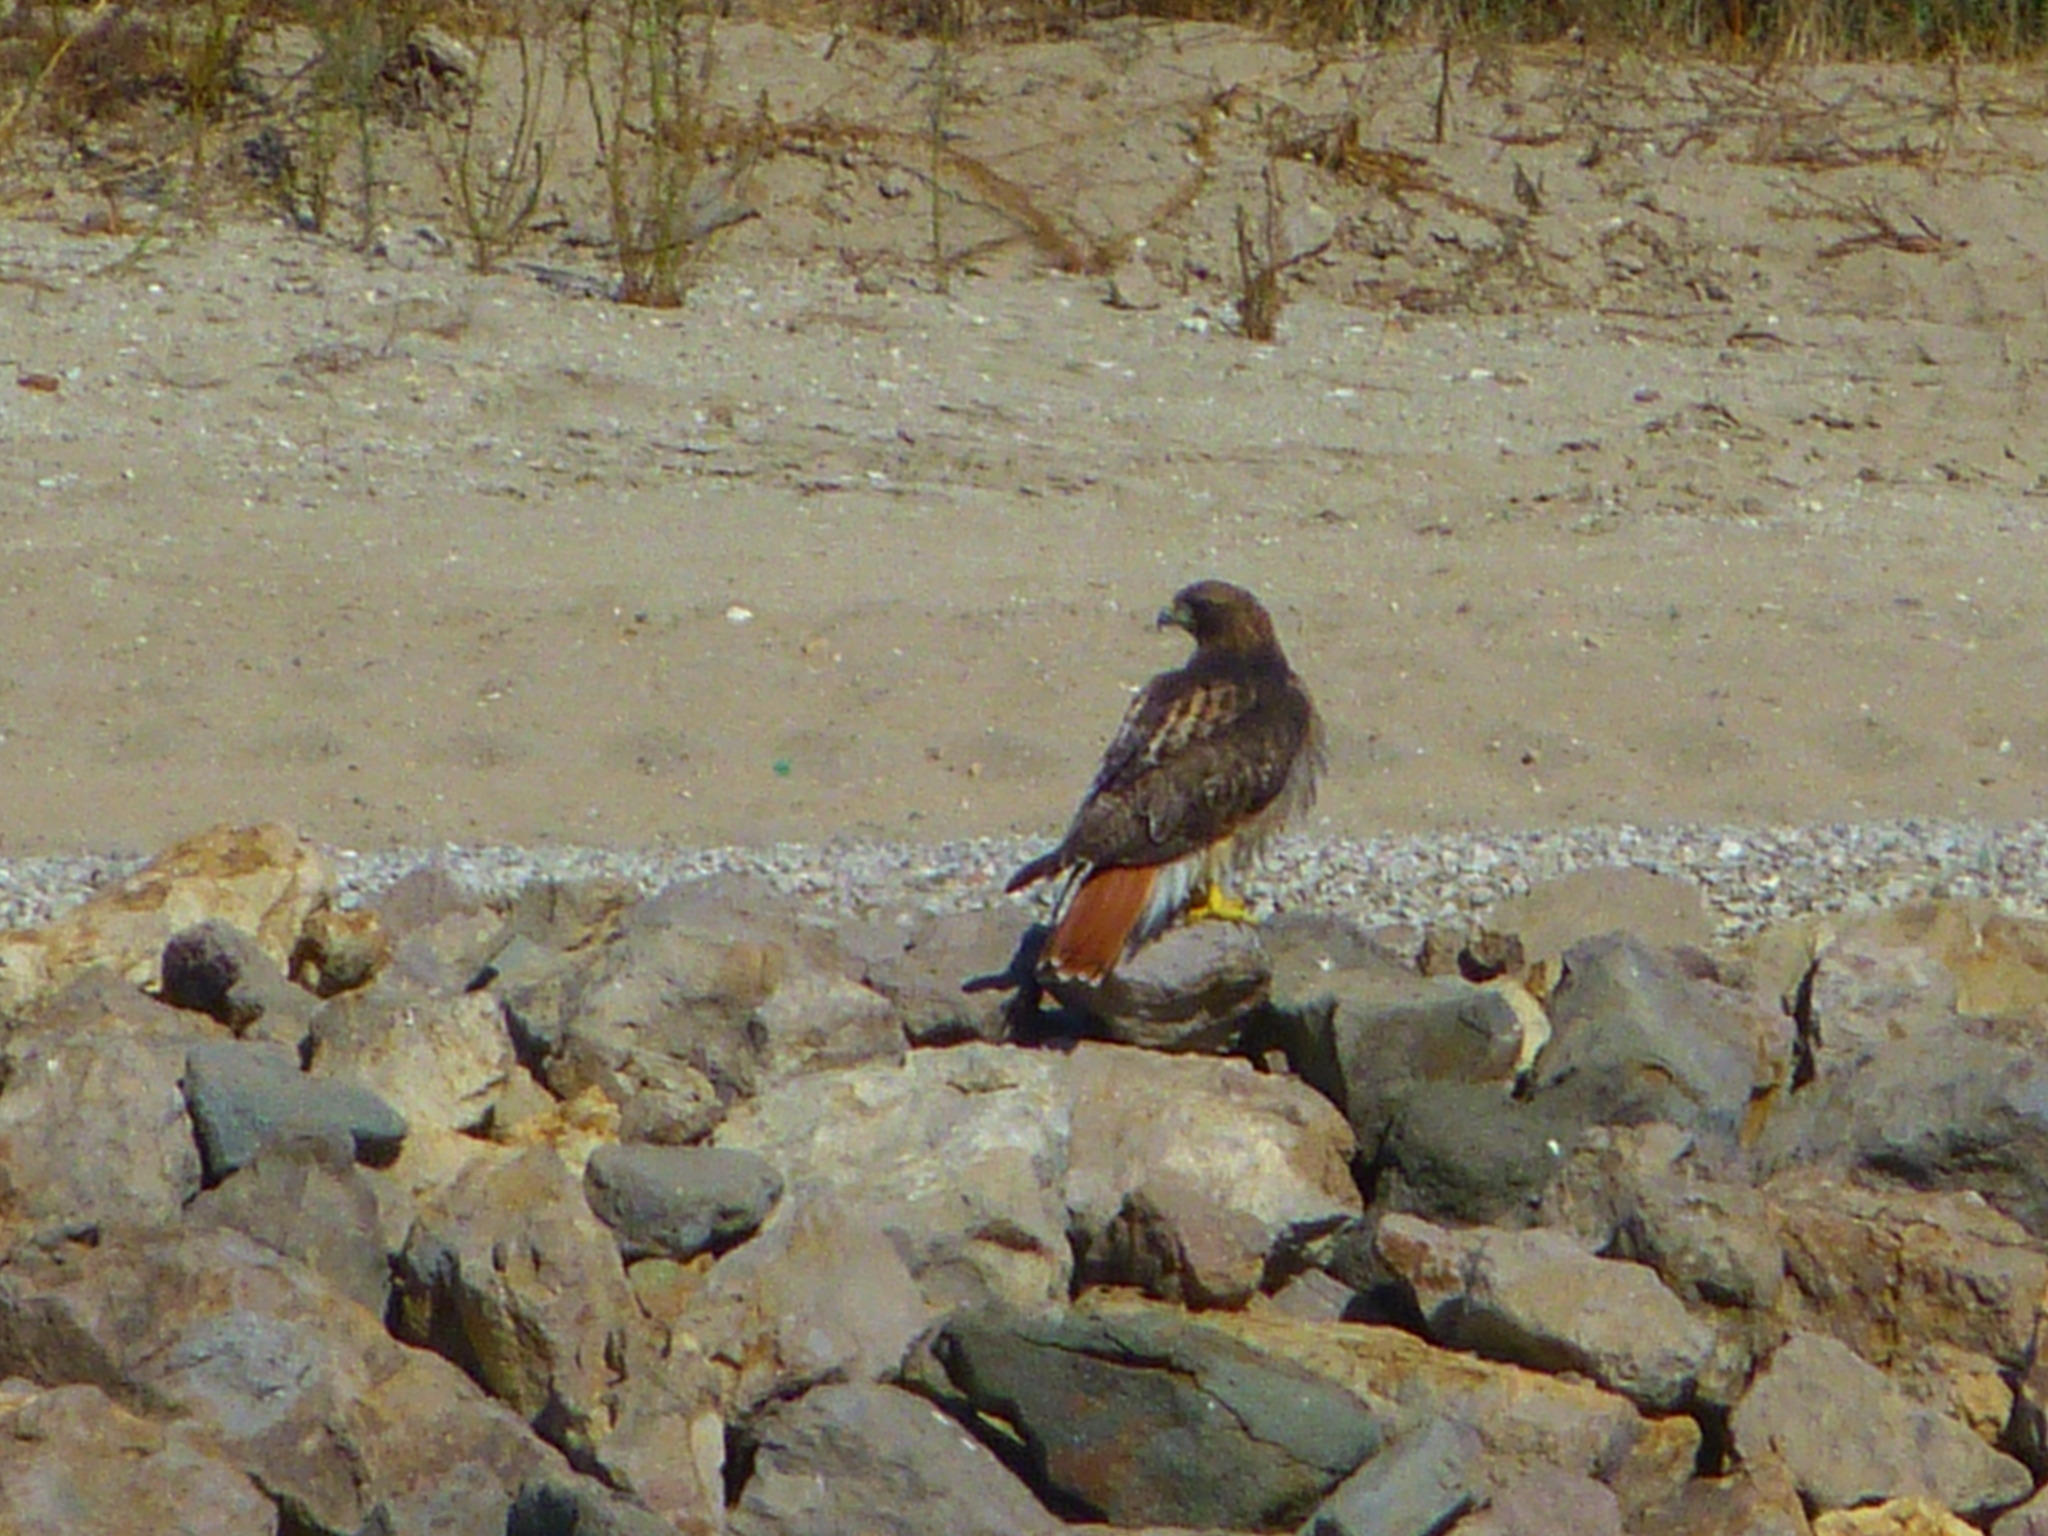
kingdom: Animalia
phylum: Chordata
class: Aves
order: Accipitriformes
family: Accipitridae
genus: Buteo
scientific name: Buteo jamaicensis
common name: Red-tailed hawk
